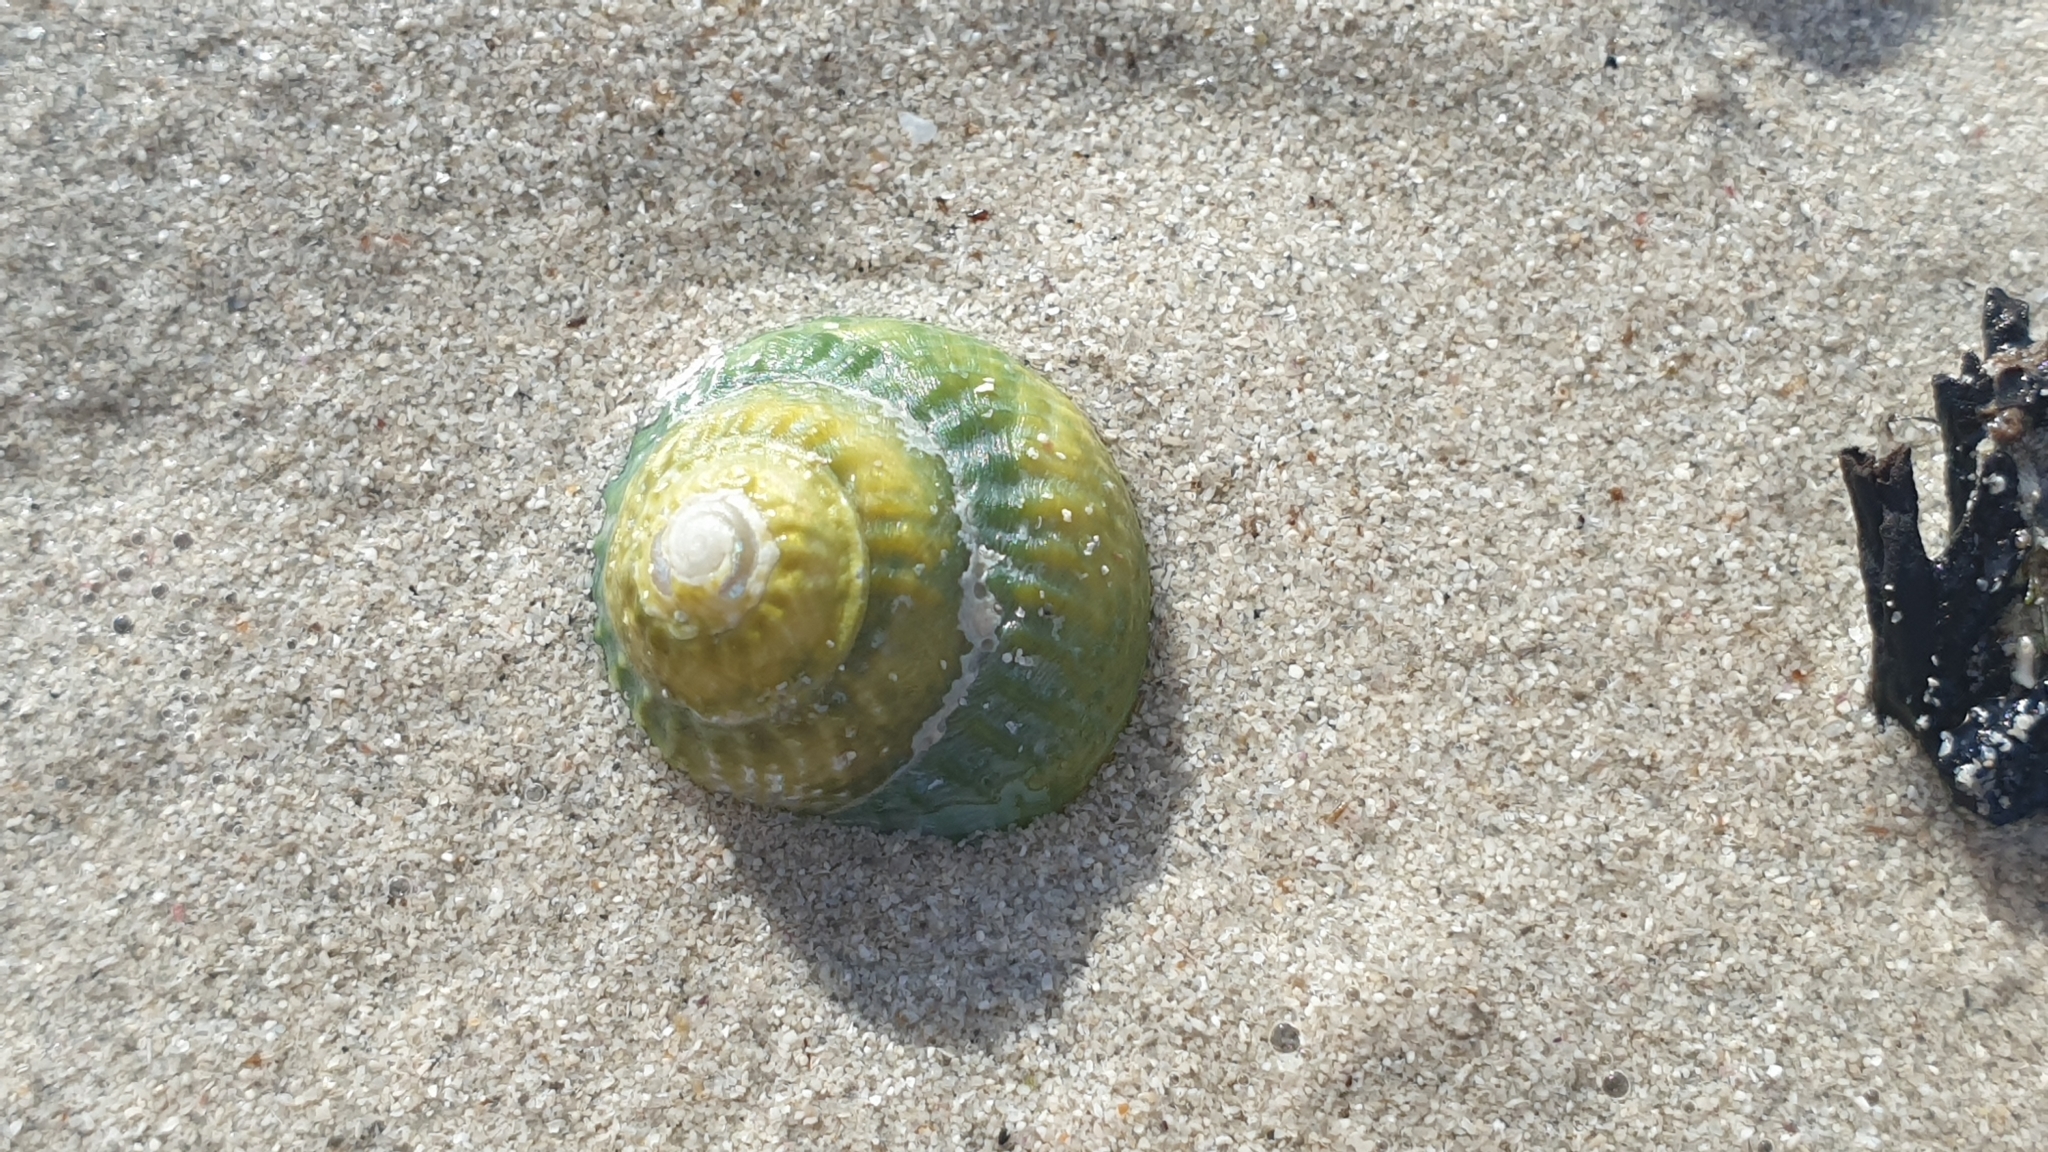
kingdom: Animalia
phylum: Mollusca
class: Gastropoda
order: Trochida
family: Turbinidae
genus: Bellastraea
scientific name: Bellastraea aurea
